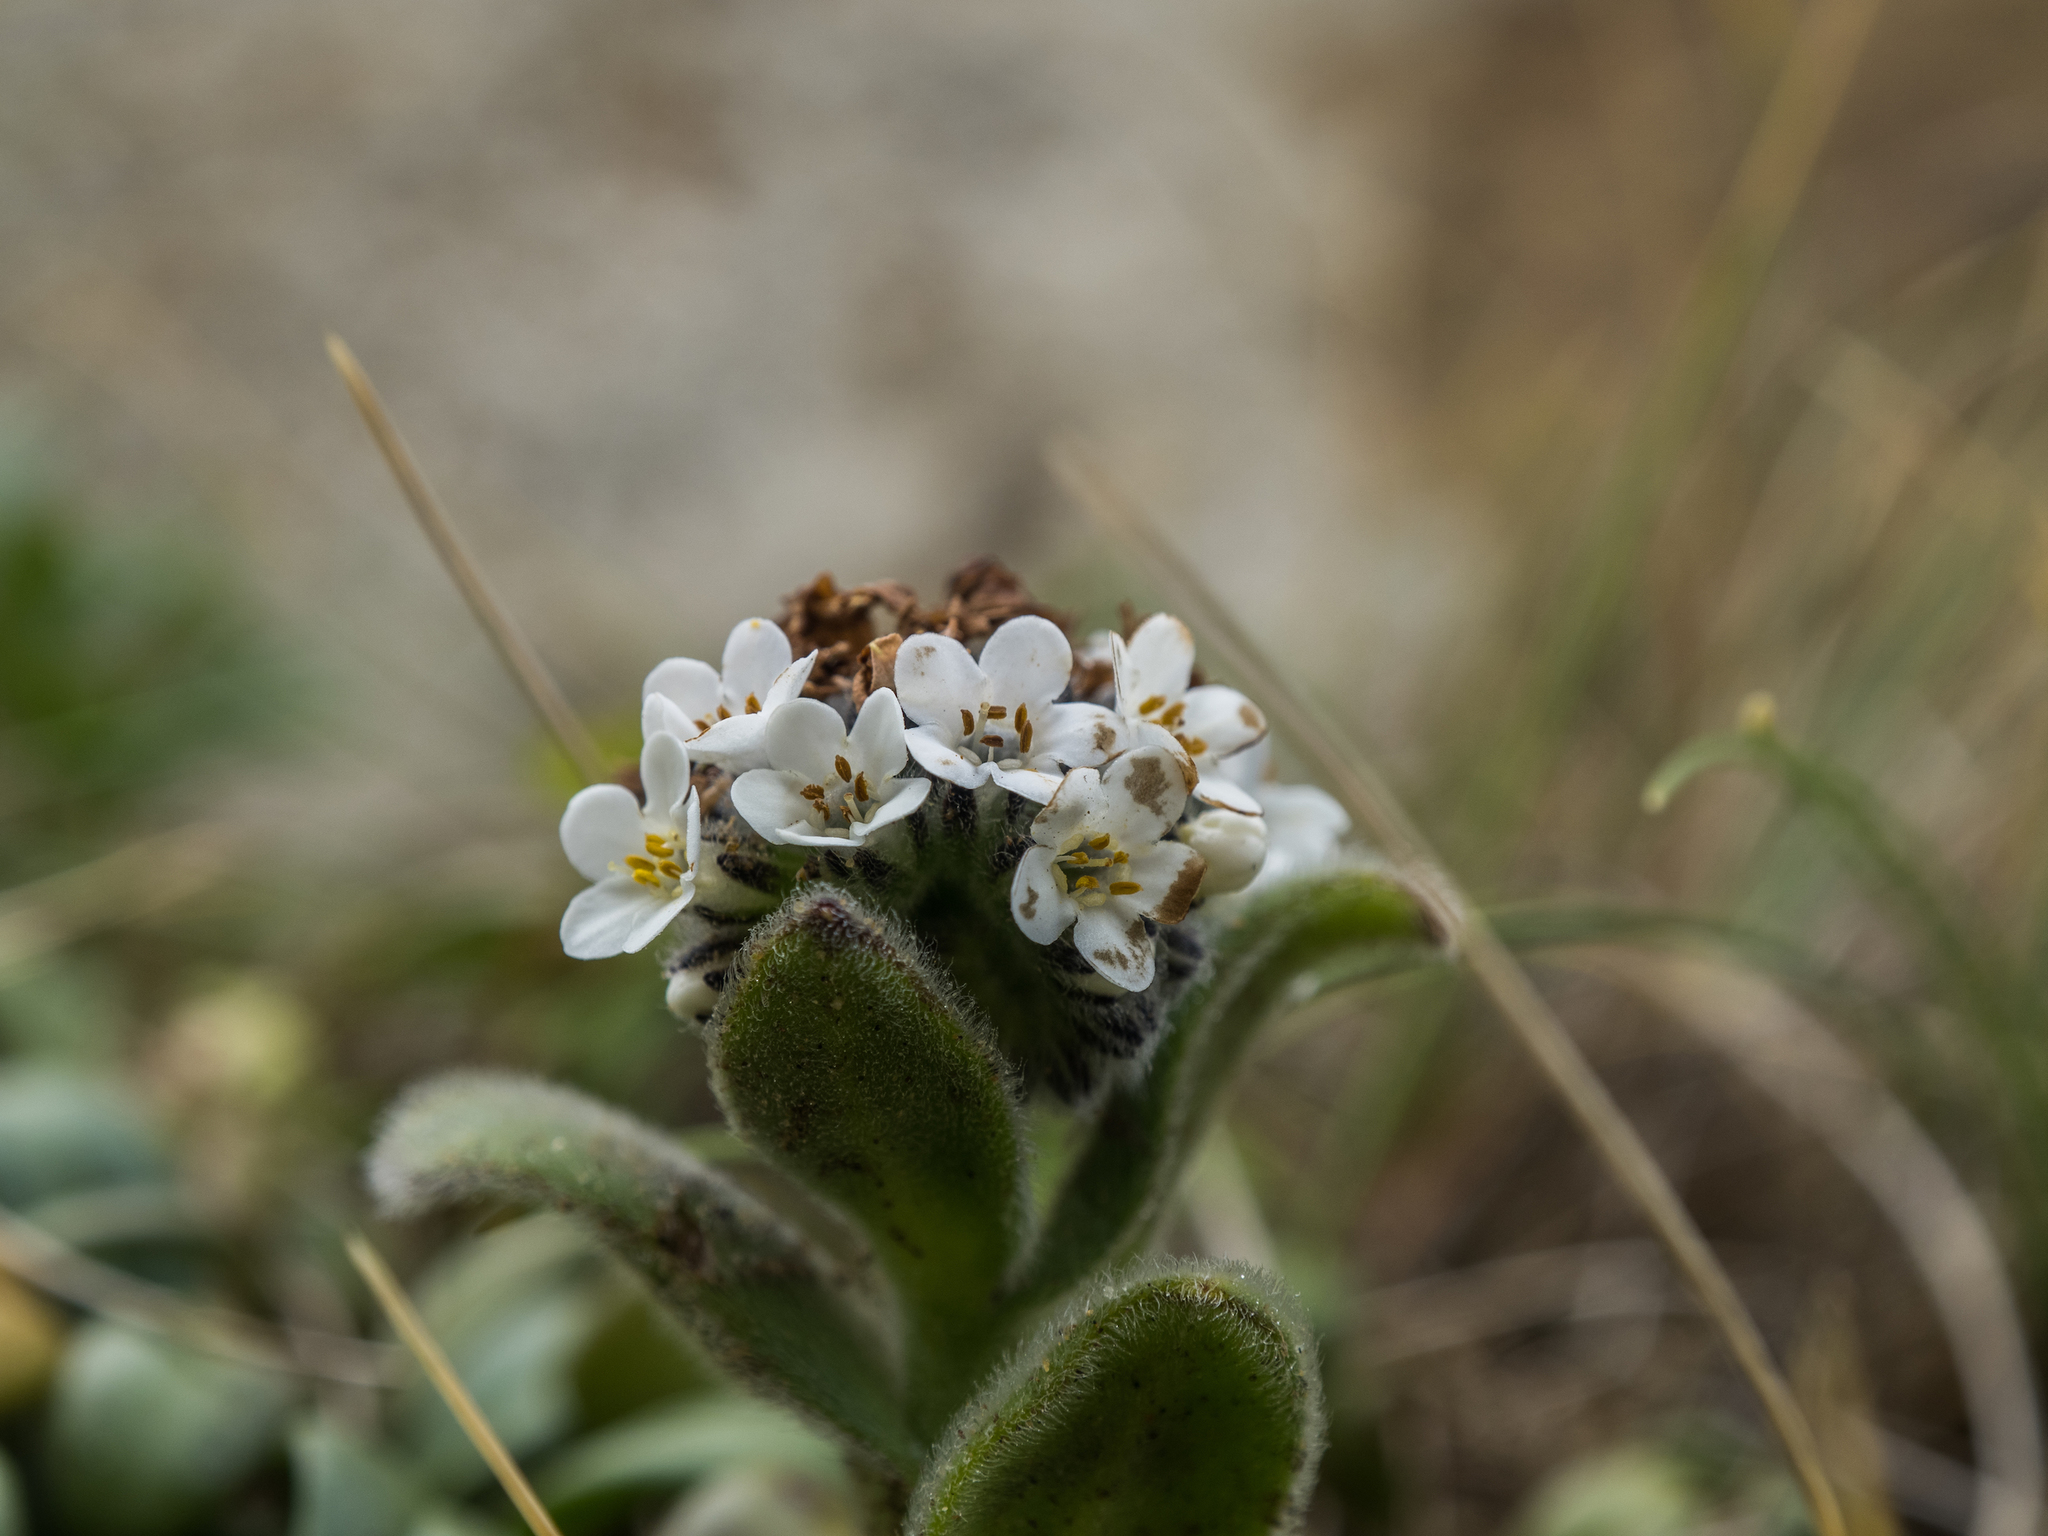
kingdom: Plantae
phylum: Tracheophyta
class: Magnoliopsida
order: Boraginales
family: Boraginaceae
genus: Myosotis
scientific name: Myosotis rakiura
